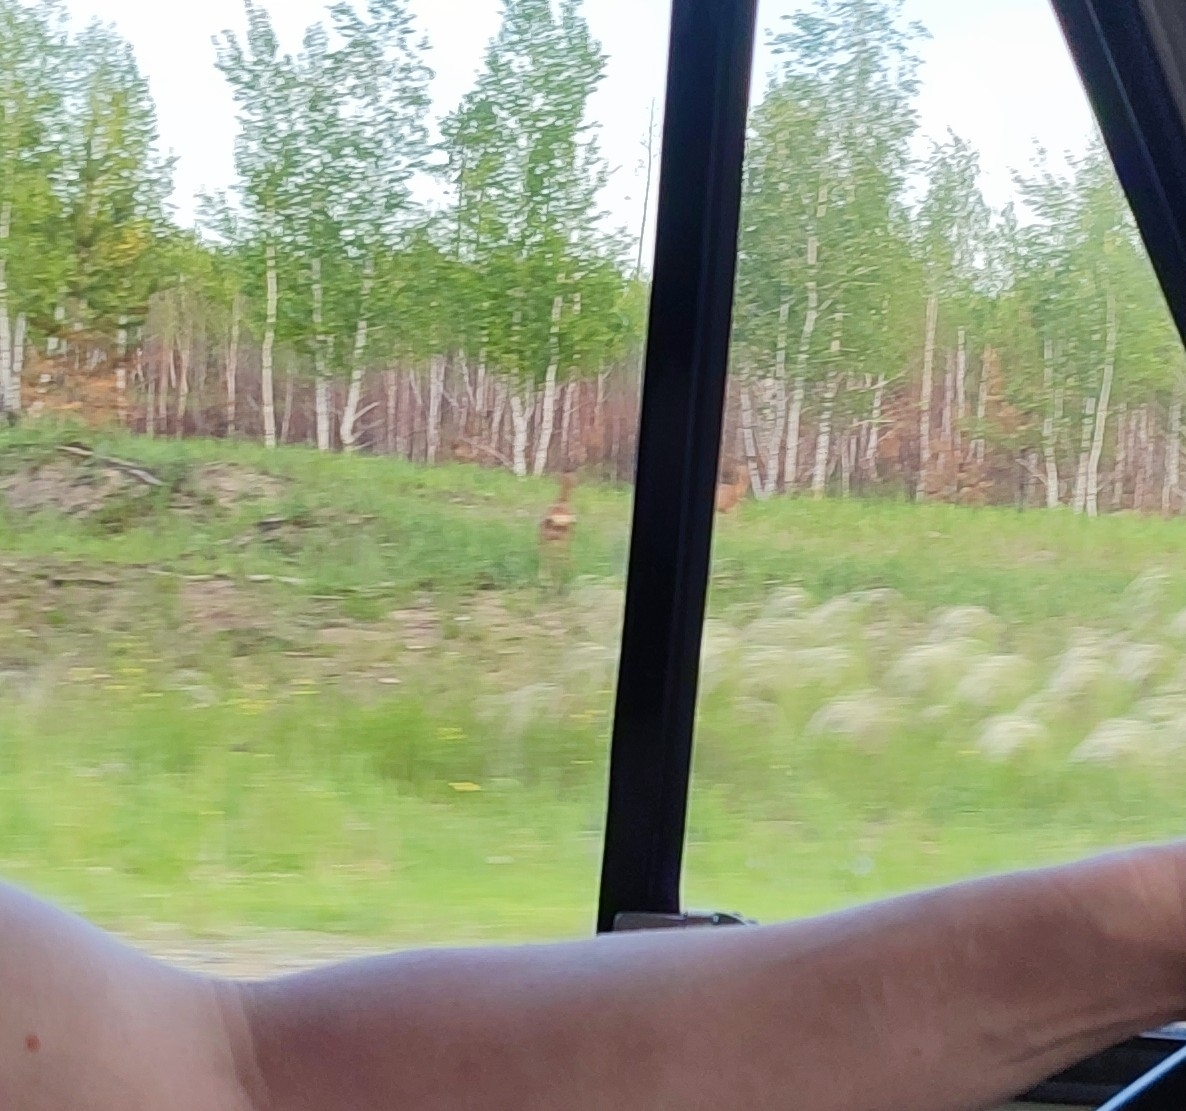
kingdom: Animalia
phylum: Chordata
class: Mammalia
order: Artiodactyla
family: Cervidae
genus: Capreolus
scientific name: Capreolus pygargus
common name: Siberian roe
